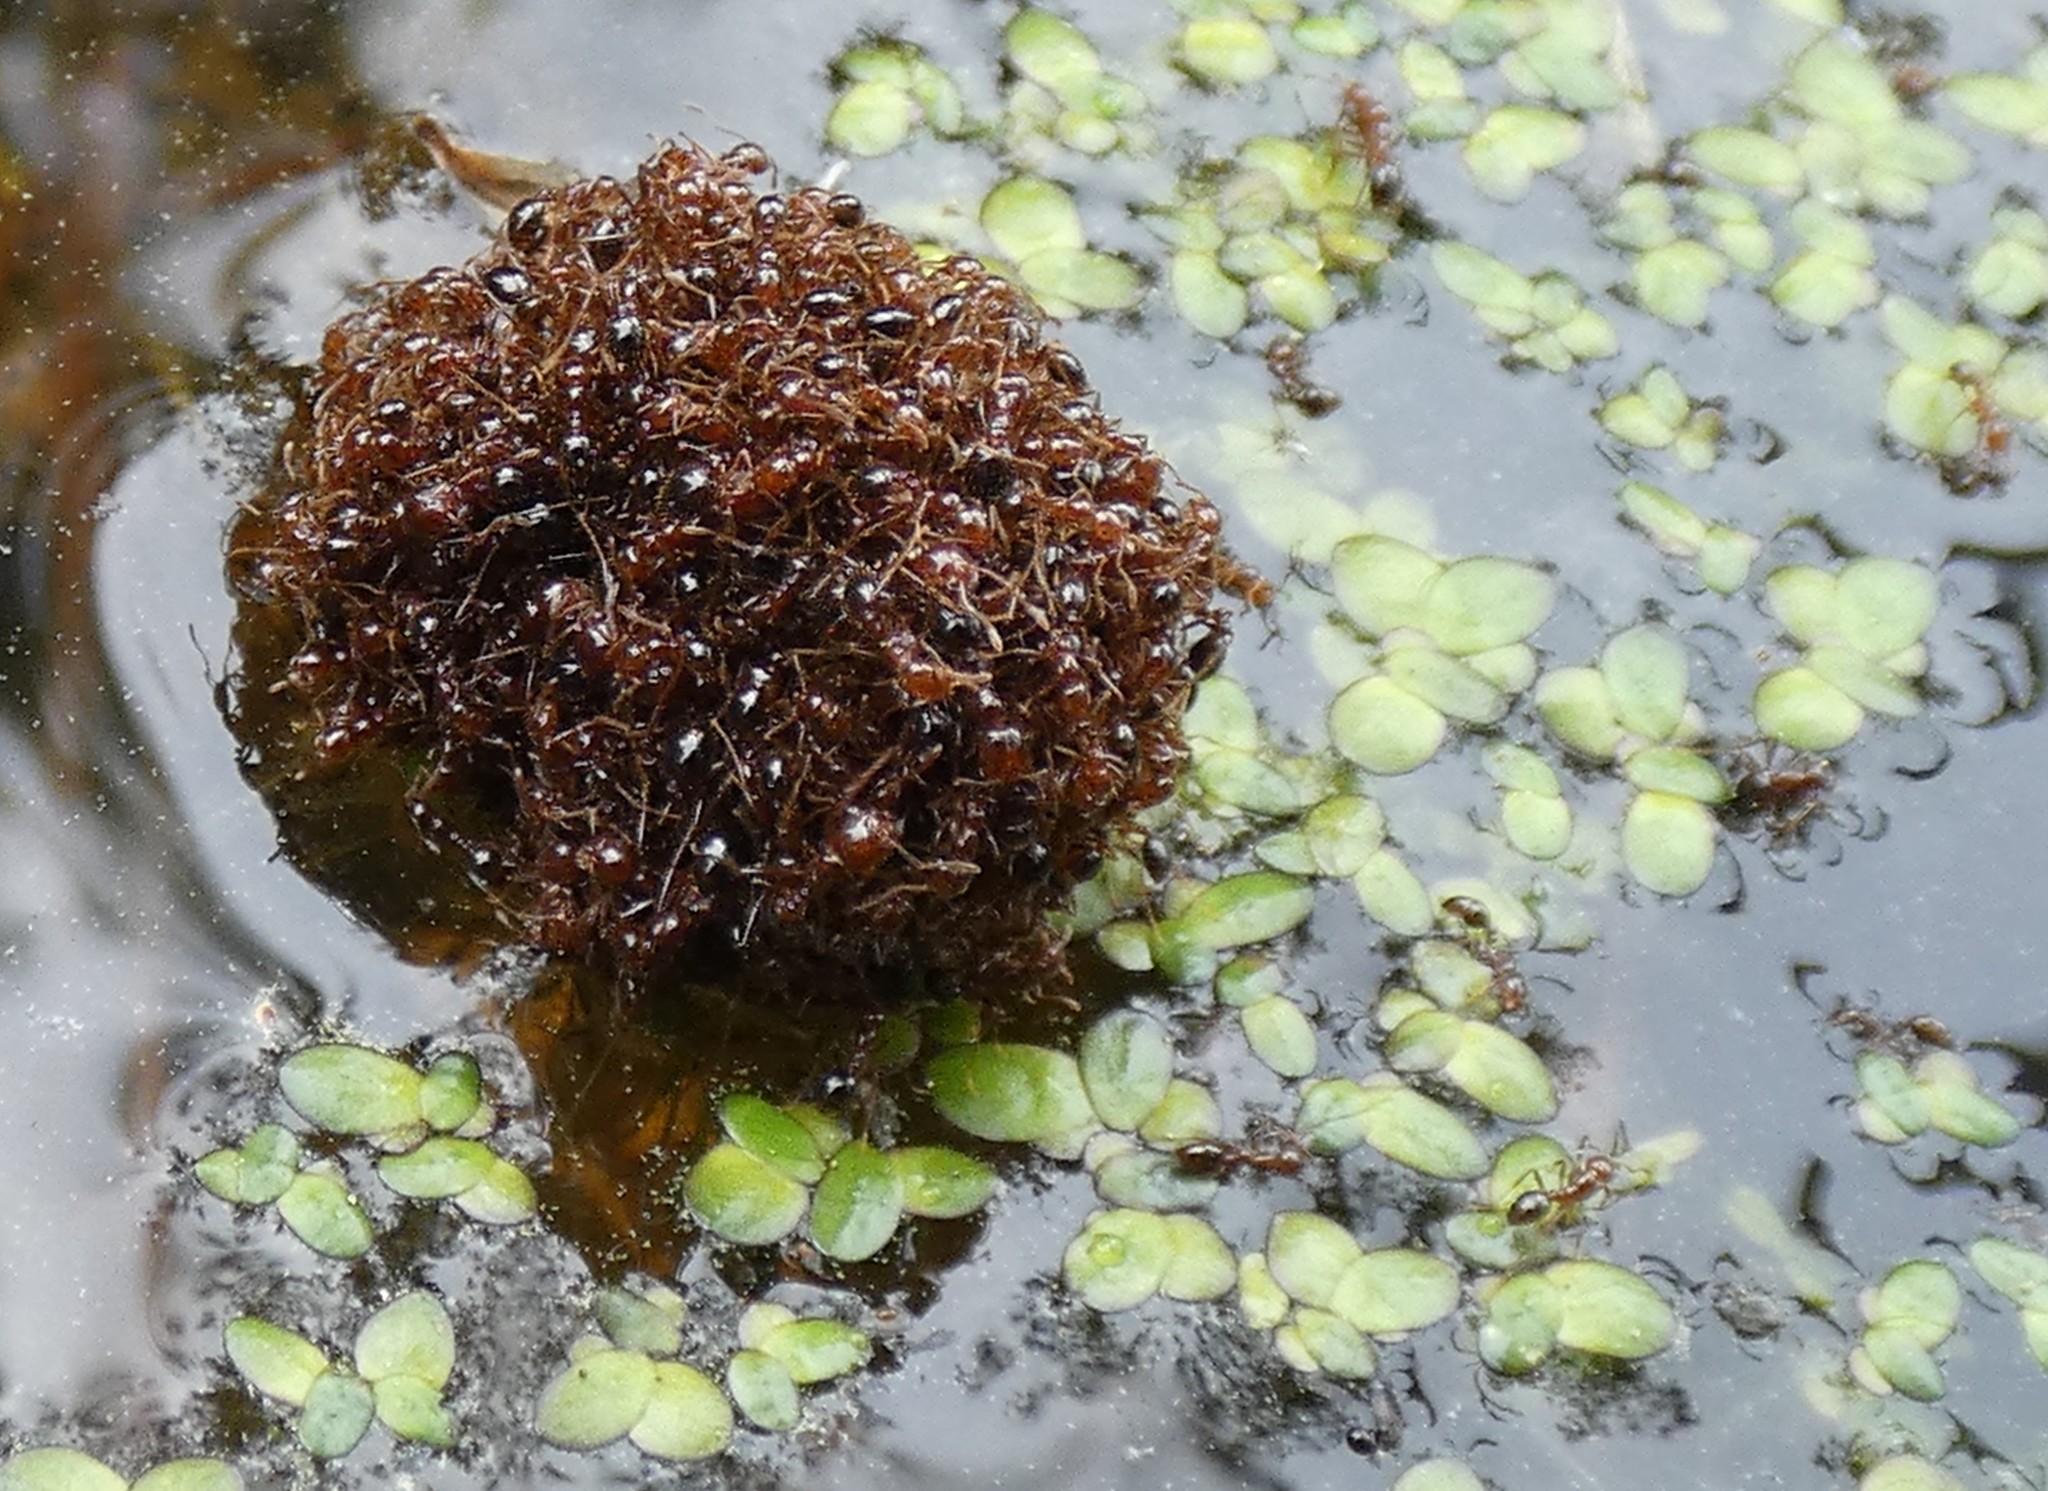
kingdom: Animalia
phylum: Arthropoda
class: Insecta
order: Hymenoptera
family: Formicidae
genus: Solenopsis
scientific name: Solenopsis invicta
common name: Red imported fire ant
